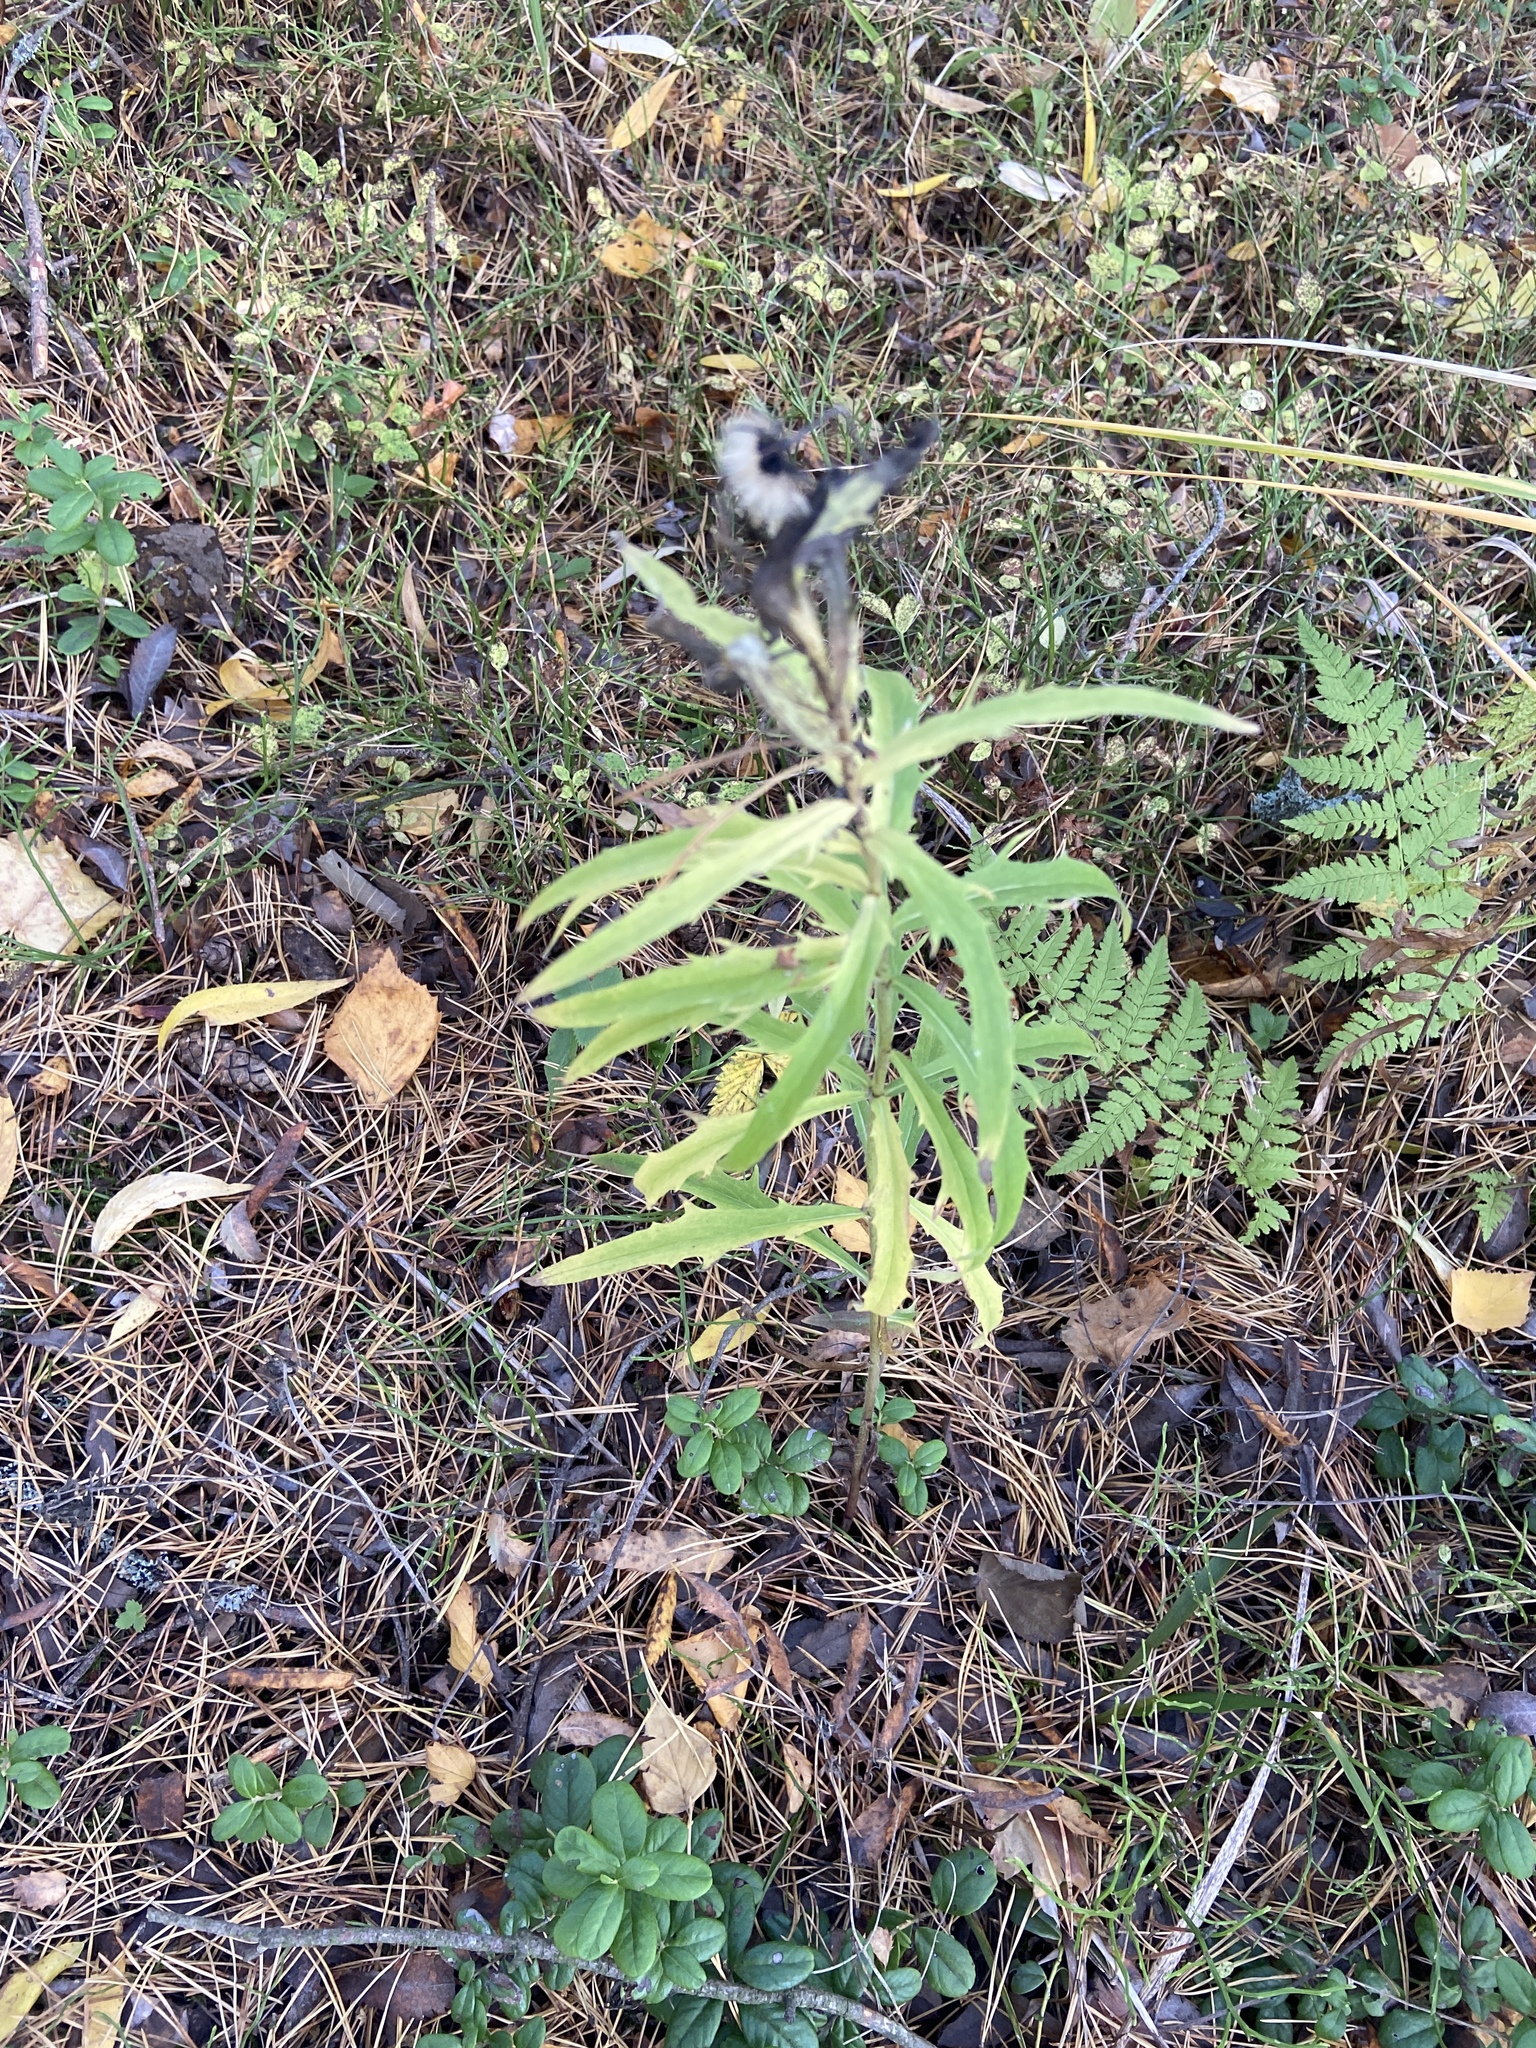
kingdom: Plantae
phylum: Tracheophyta
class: Magnoliopsida
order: Asterales
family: Asteraceae
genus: Hieracium
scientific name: Hieracium umbellatum
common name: Northern hawkweed
